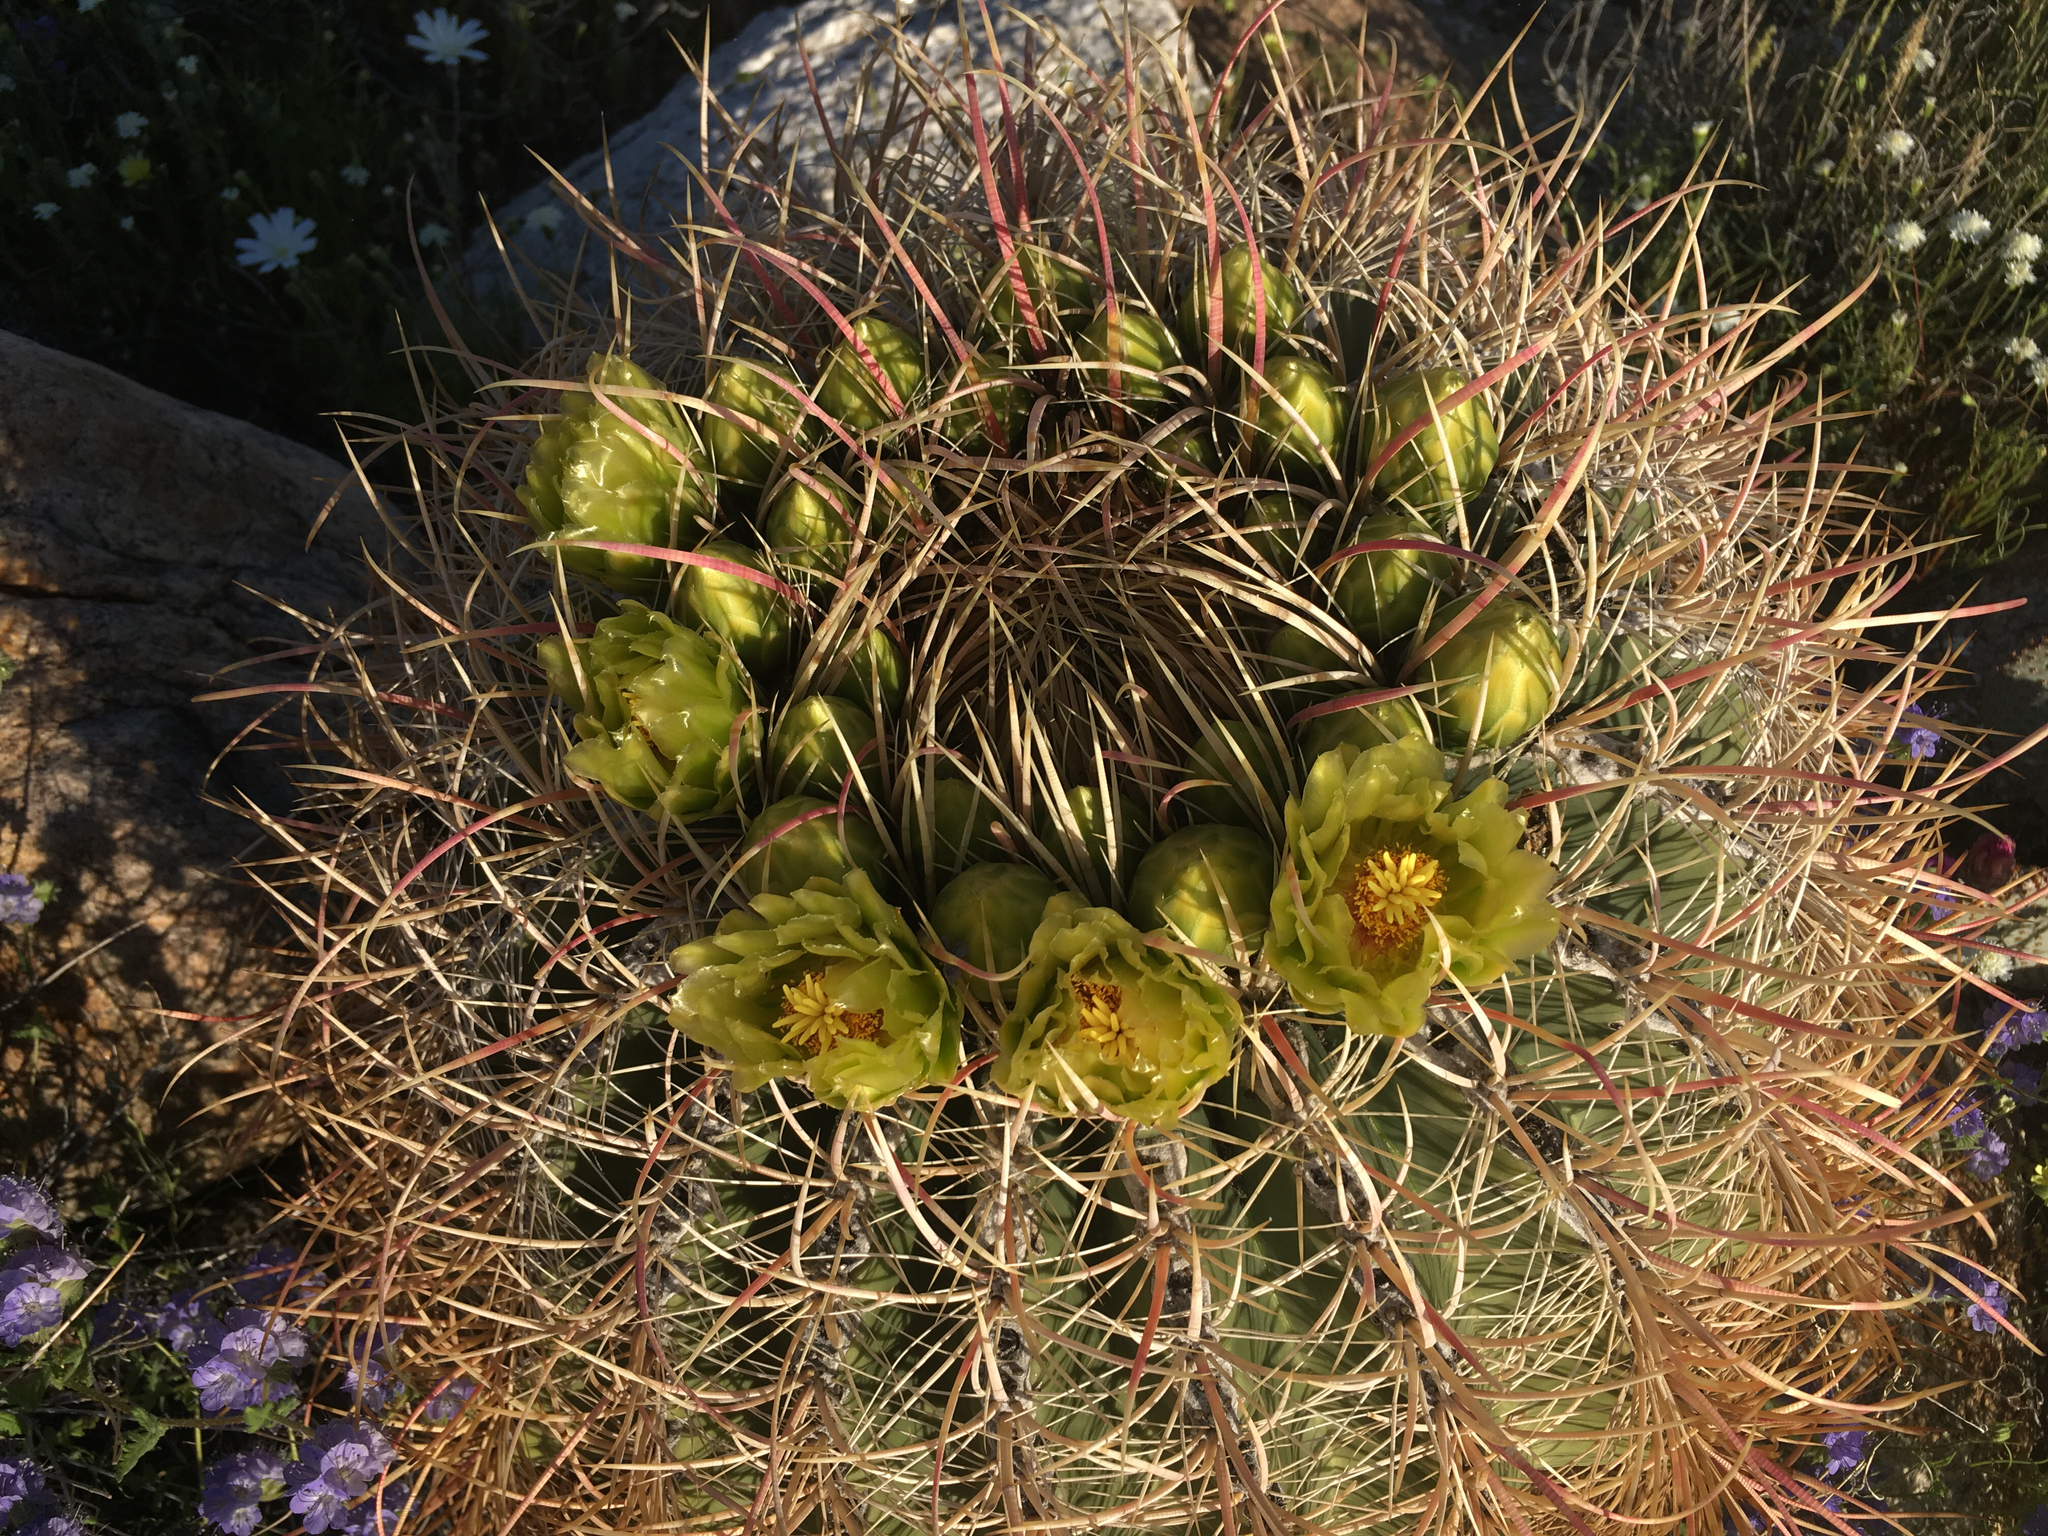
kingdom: Plantae
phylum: Tracheophyta
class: Magnoliopsida
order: Caryophyllales
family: Cactaceae
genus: Ferocactus
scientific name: Ferocactus cylindraceus
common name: California barrel cactus
